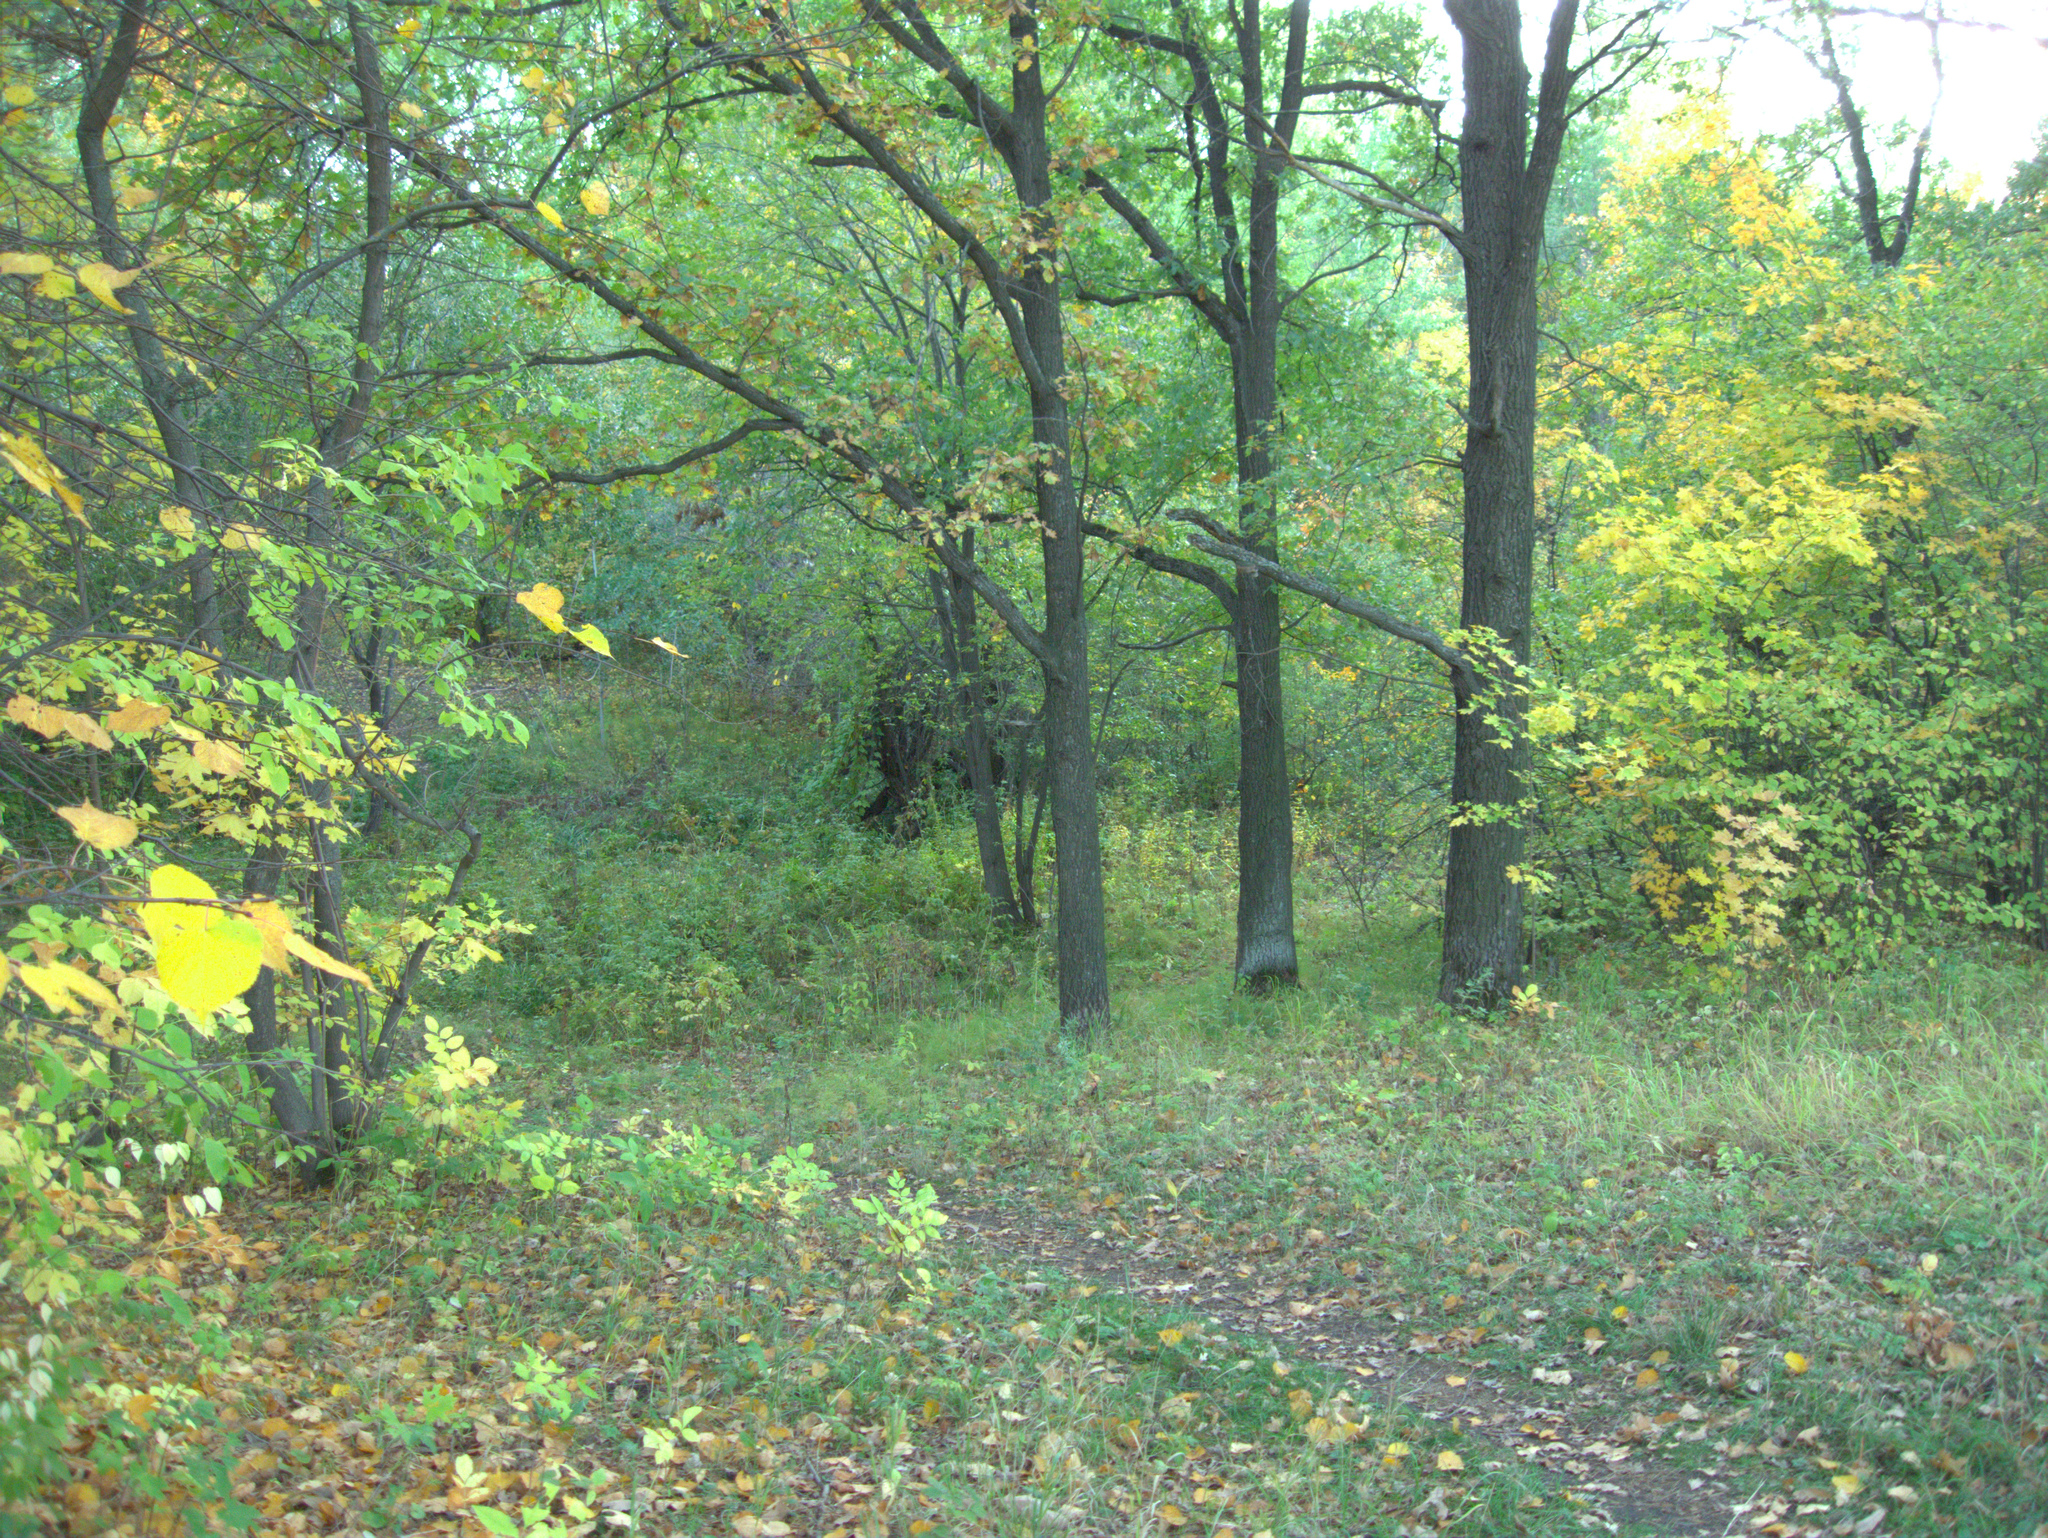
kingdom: Plantae
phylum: Tracheophyta
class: Magnoliopsida
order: Fagales
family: Fagaceae
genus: Quercus
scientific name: Quercus robur
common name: Pedunculate oak
